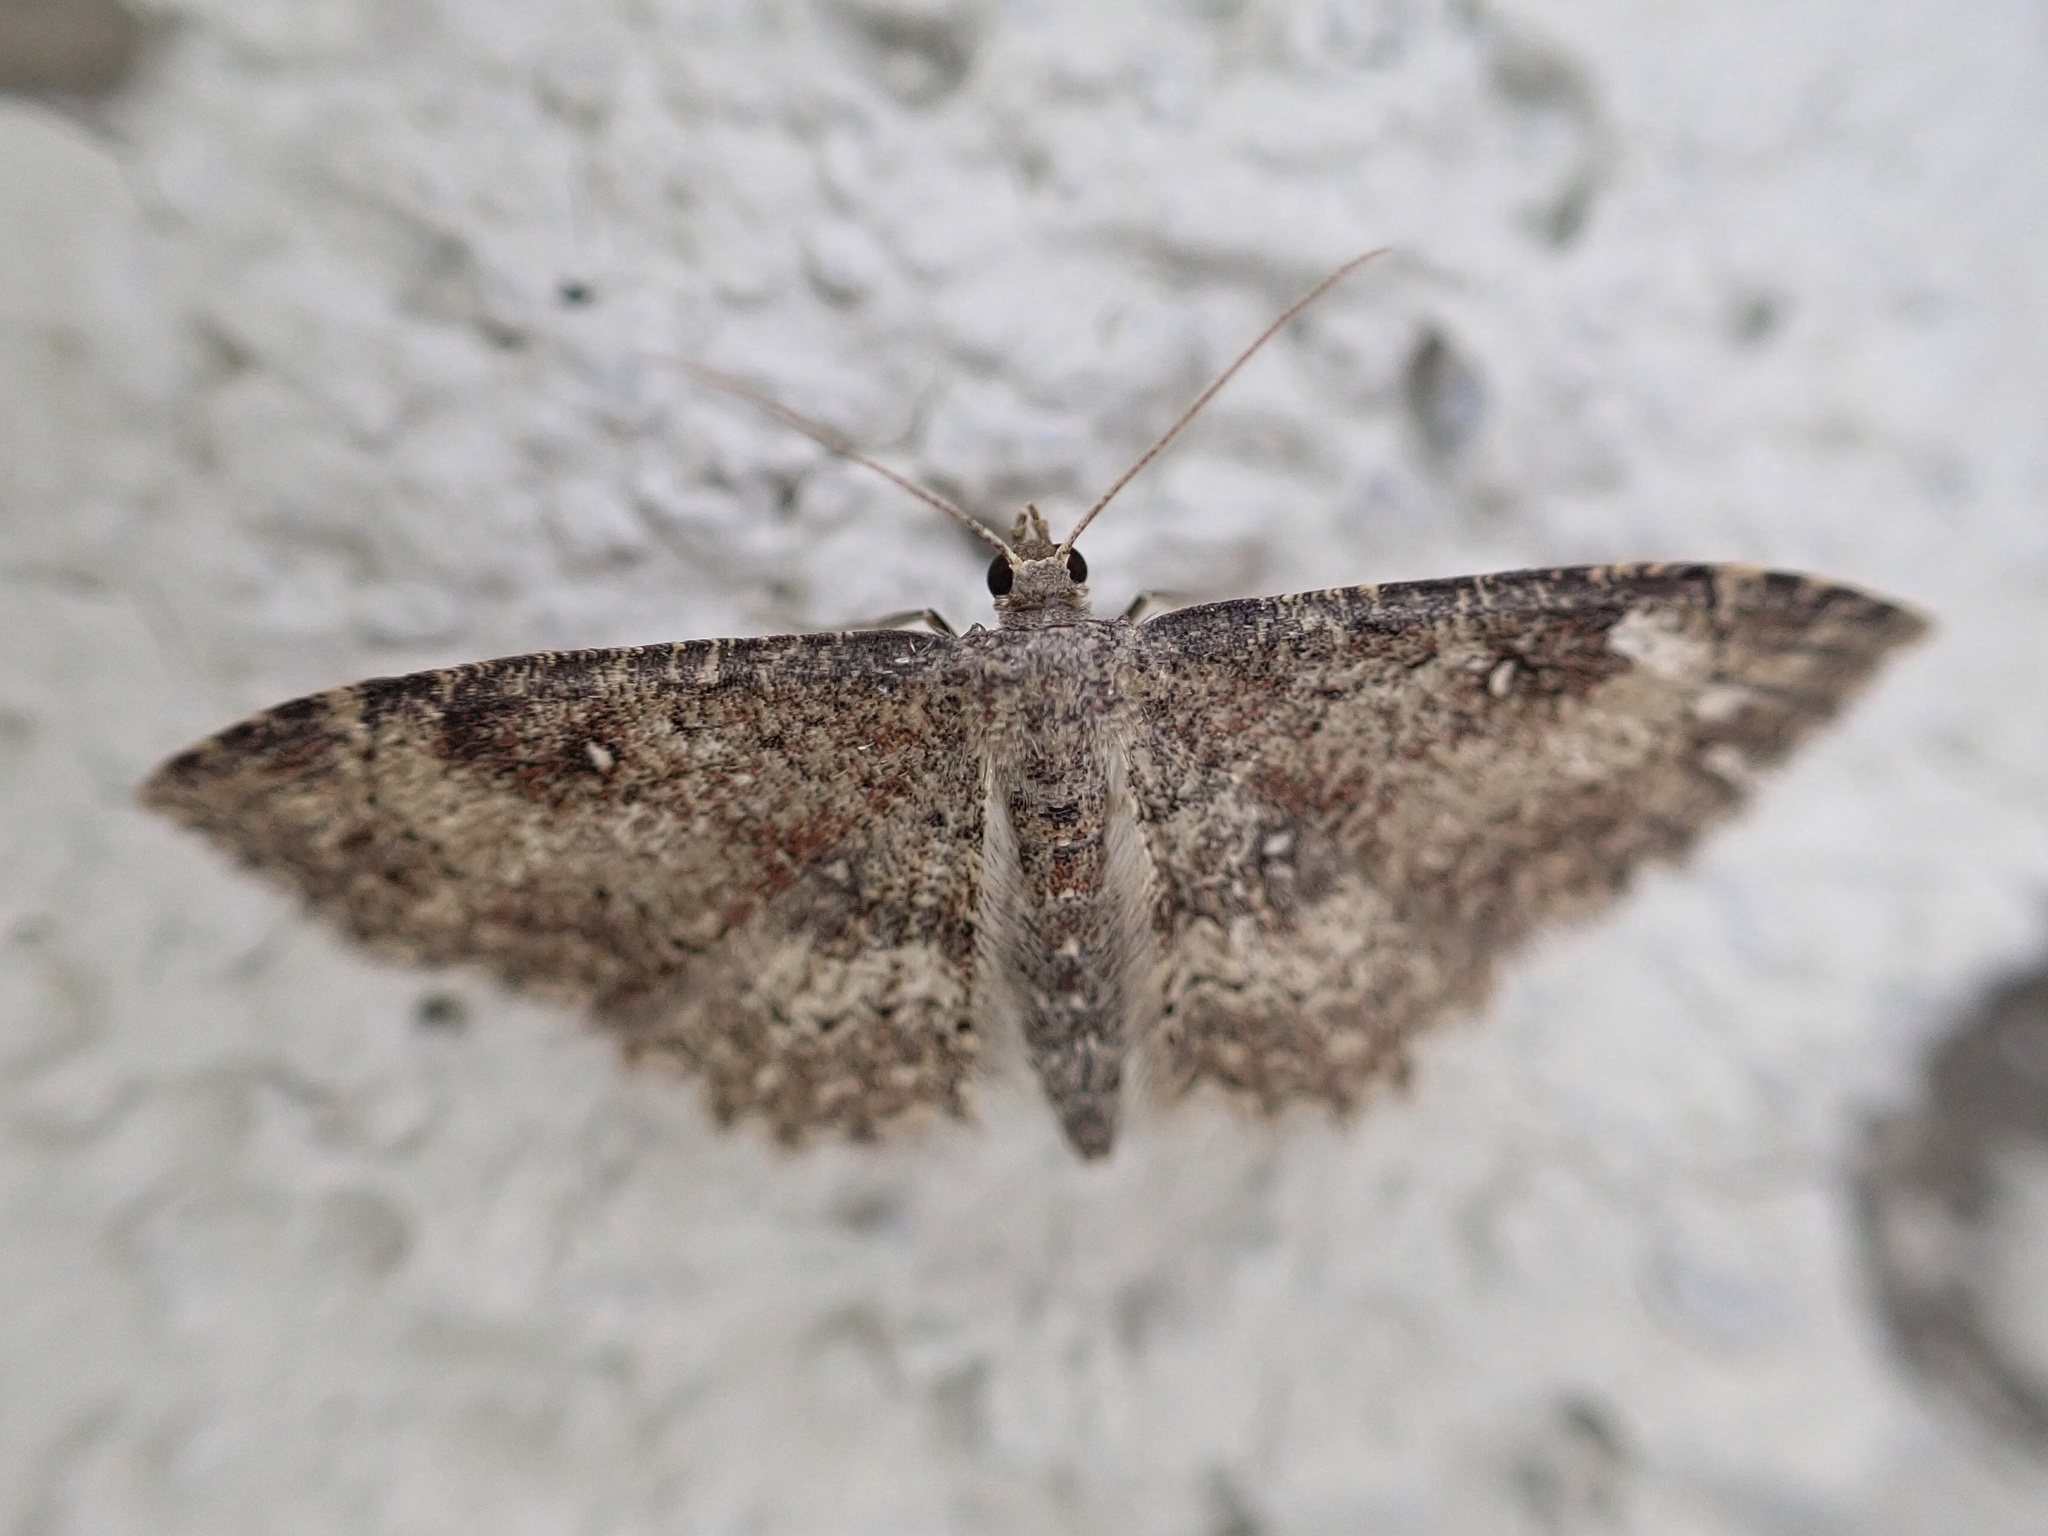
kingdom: Animalia
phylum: Arthropoda
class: Insecta
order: Lepidoptera
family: Geometridae
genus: Cyclophora
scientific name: Cyclophora nanaria
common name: Cankerworm
